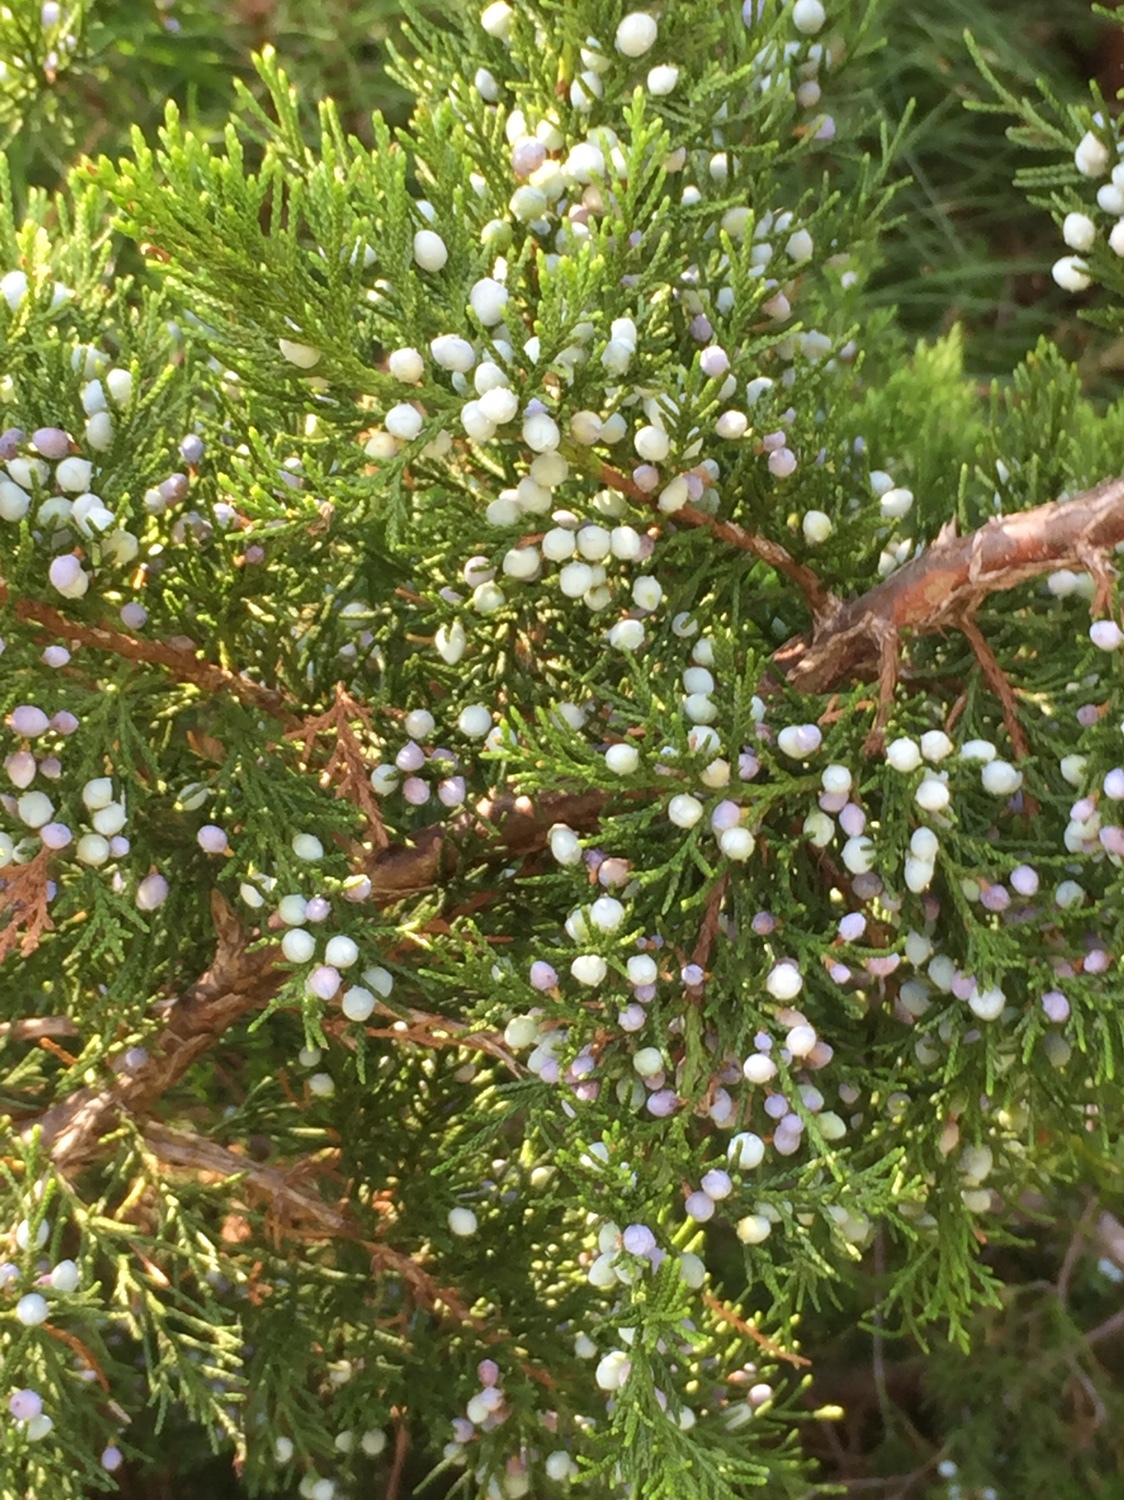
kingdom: Plantae
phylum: Tracheophyta
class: Pinopsida
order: Pinales
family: Cupressaceae
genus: Juniperus
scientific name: Juniperus virginiana
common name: Red juniper
